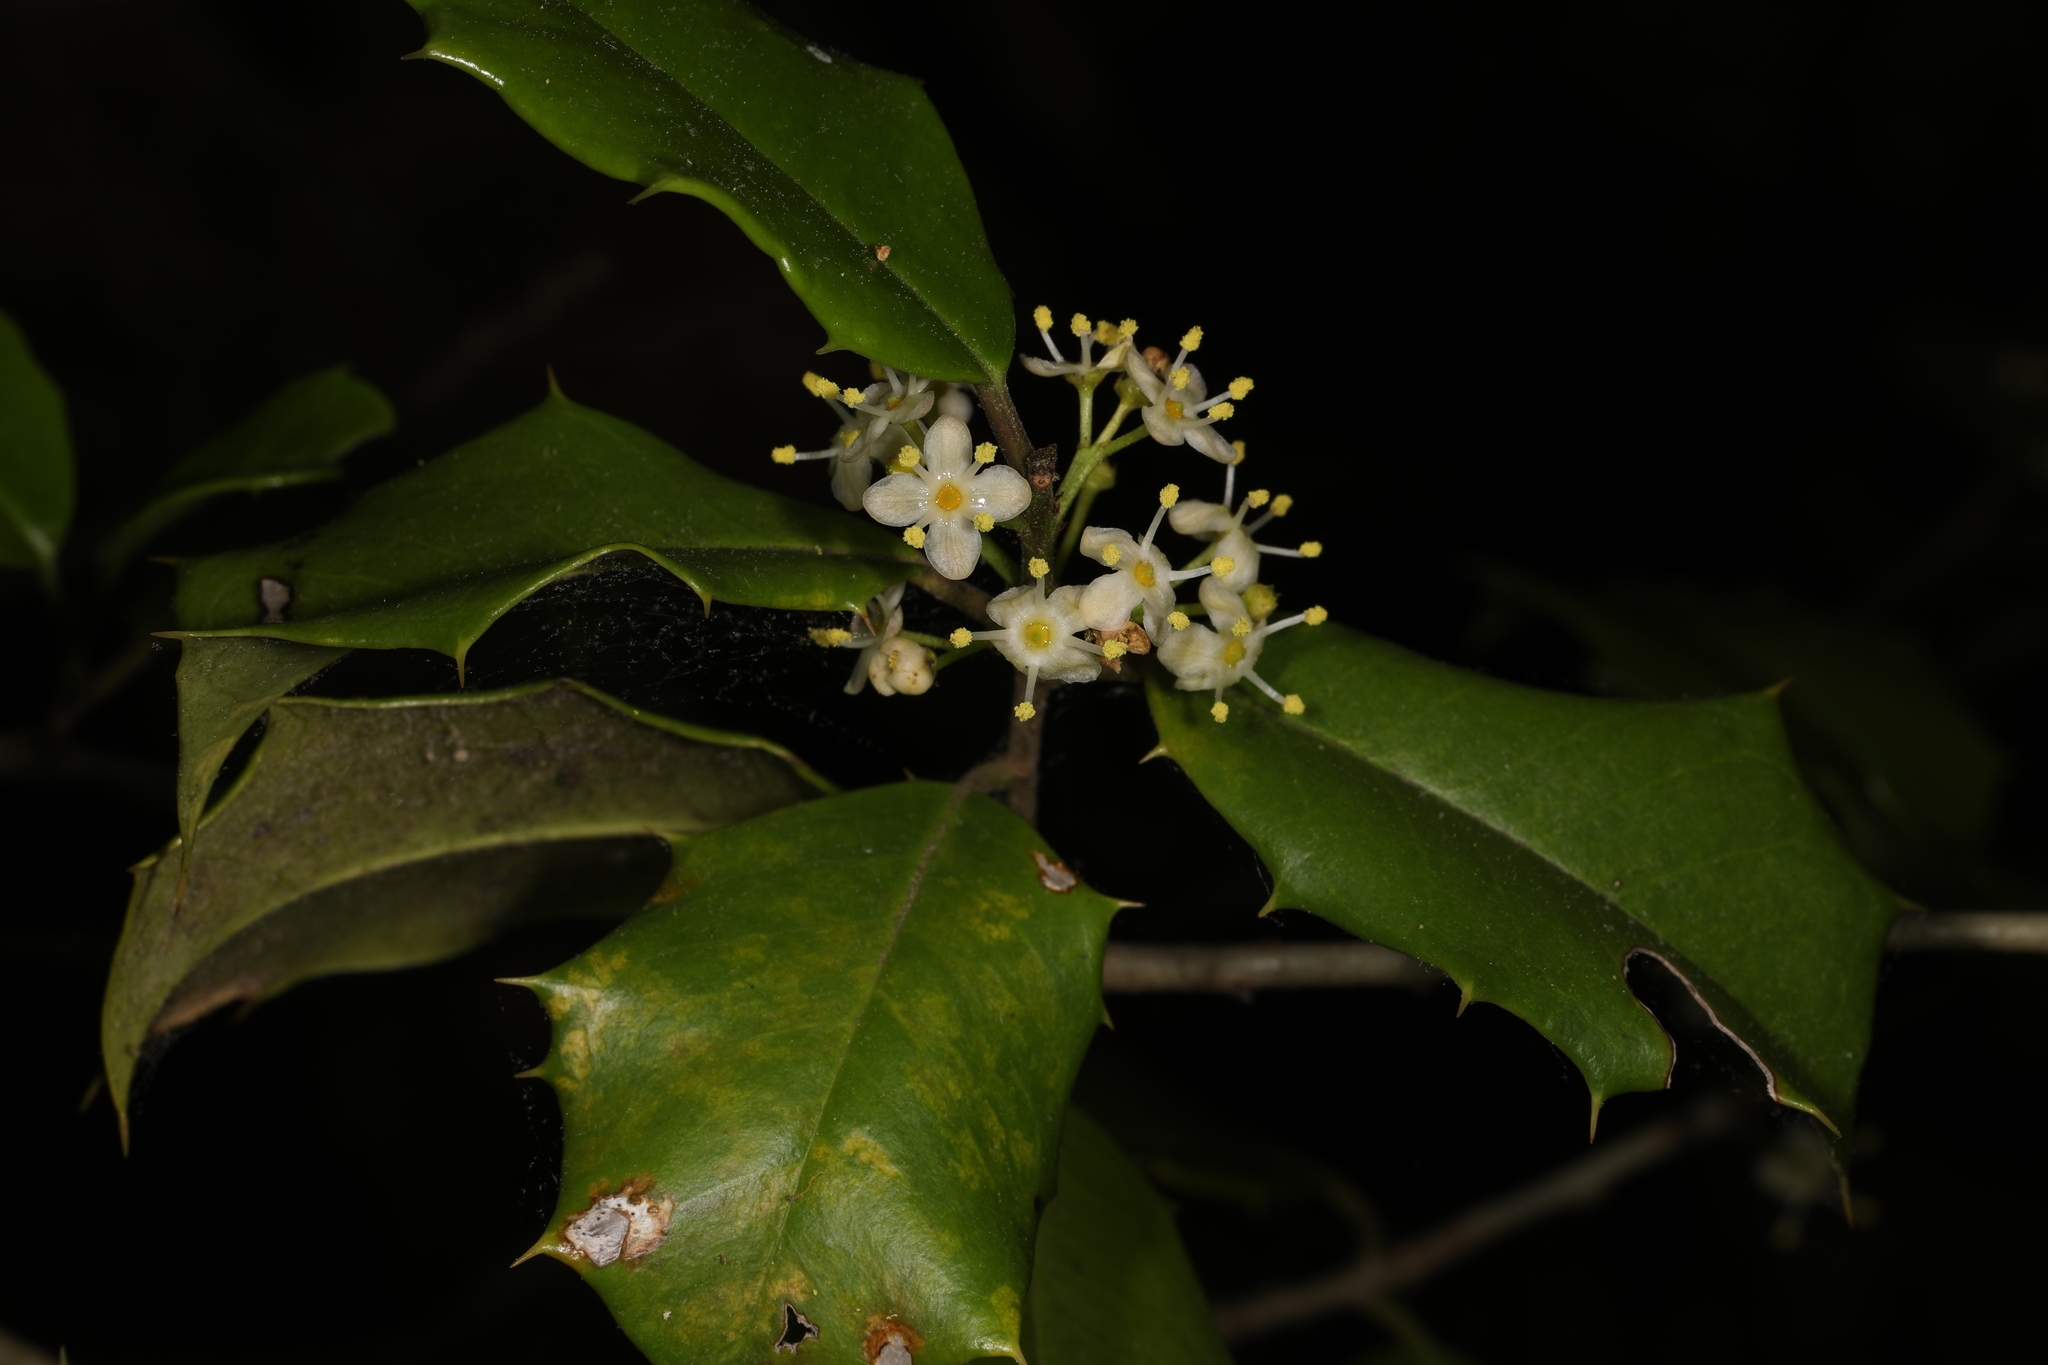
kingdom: Plantae
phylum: Tracheophyta
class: Magnoliopsida
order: Aquifoliales
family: Aquifoliaceae
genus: Ilex
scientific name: Ilex opaca
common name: American holly
